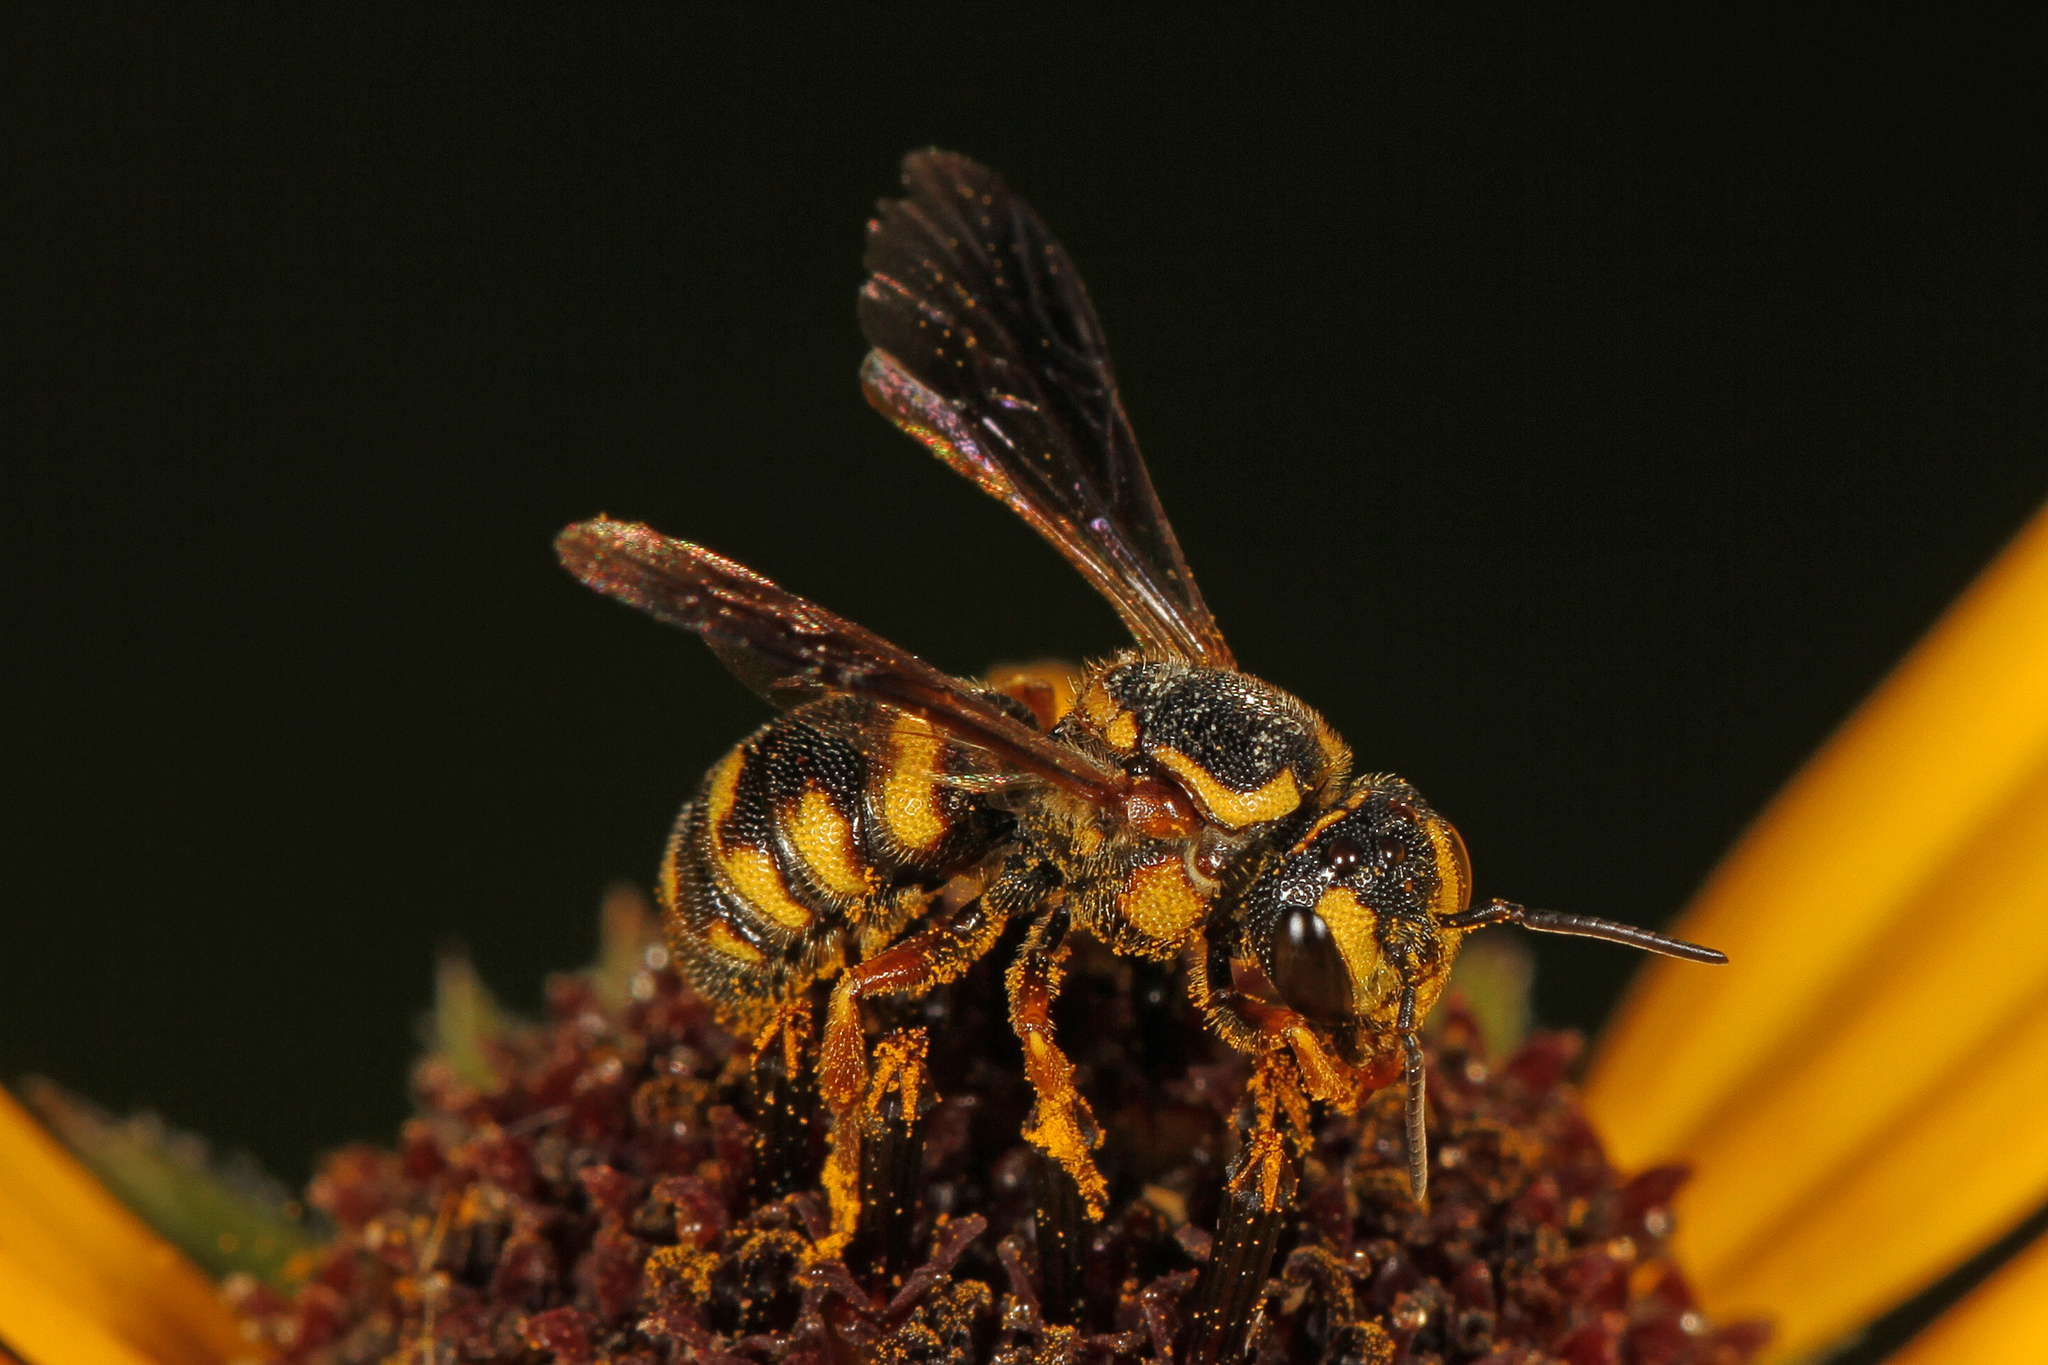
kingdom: Animalia
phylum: Arthropoda
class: Insecta
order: Hymenoptera
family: Megachilidae
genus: Stelis
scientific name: Stelis louisae
